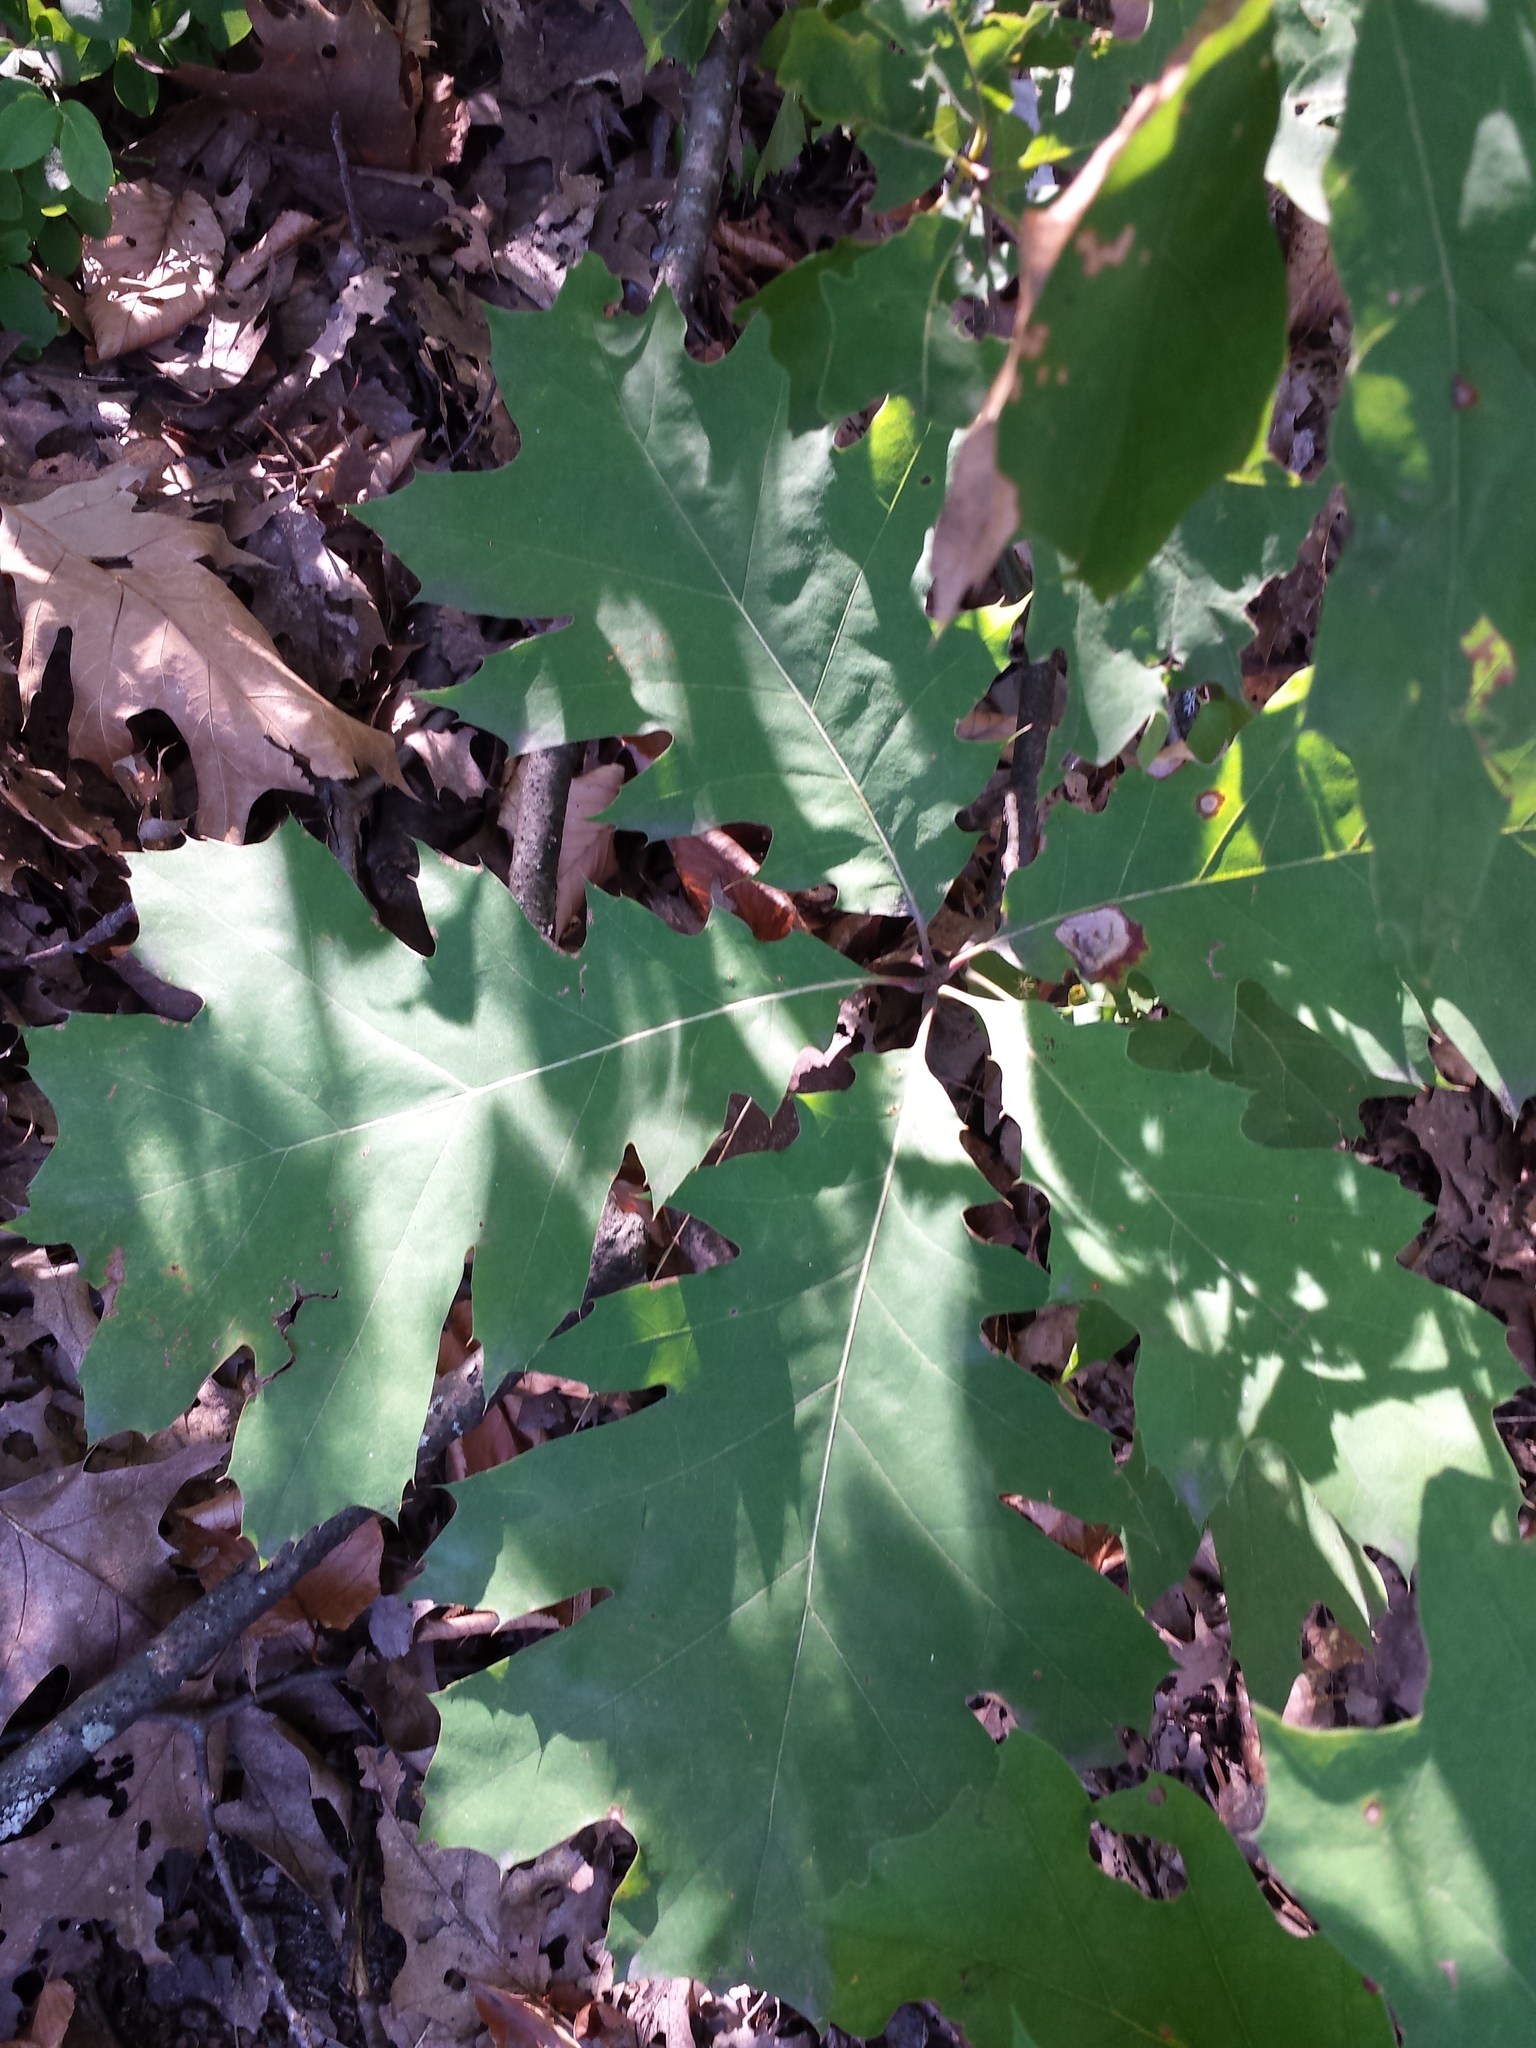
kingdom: Plantae
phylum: Tracheophyta
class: Magnoliopsida
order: Fagales
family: Fagaceae
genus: Quercus
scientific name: Quercus rubra
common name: Red oak
